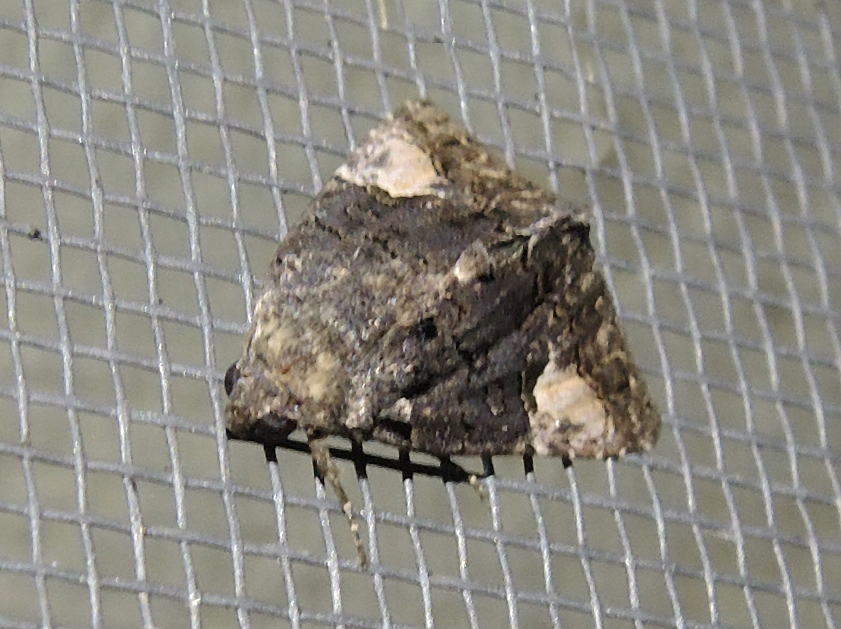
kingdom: Animalia
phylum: Arthropoda
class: Insecta
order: Lepidoptera
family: Noctuidae
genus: Aedia
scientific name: Aedia funesta
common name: The druid
